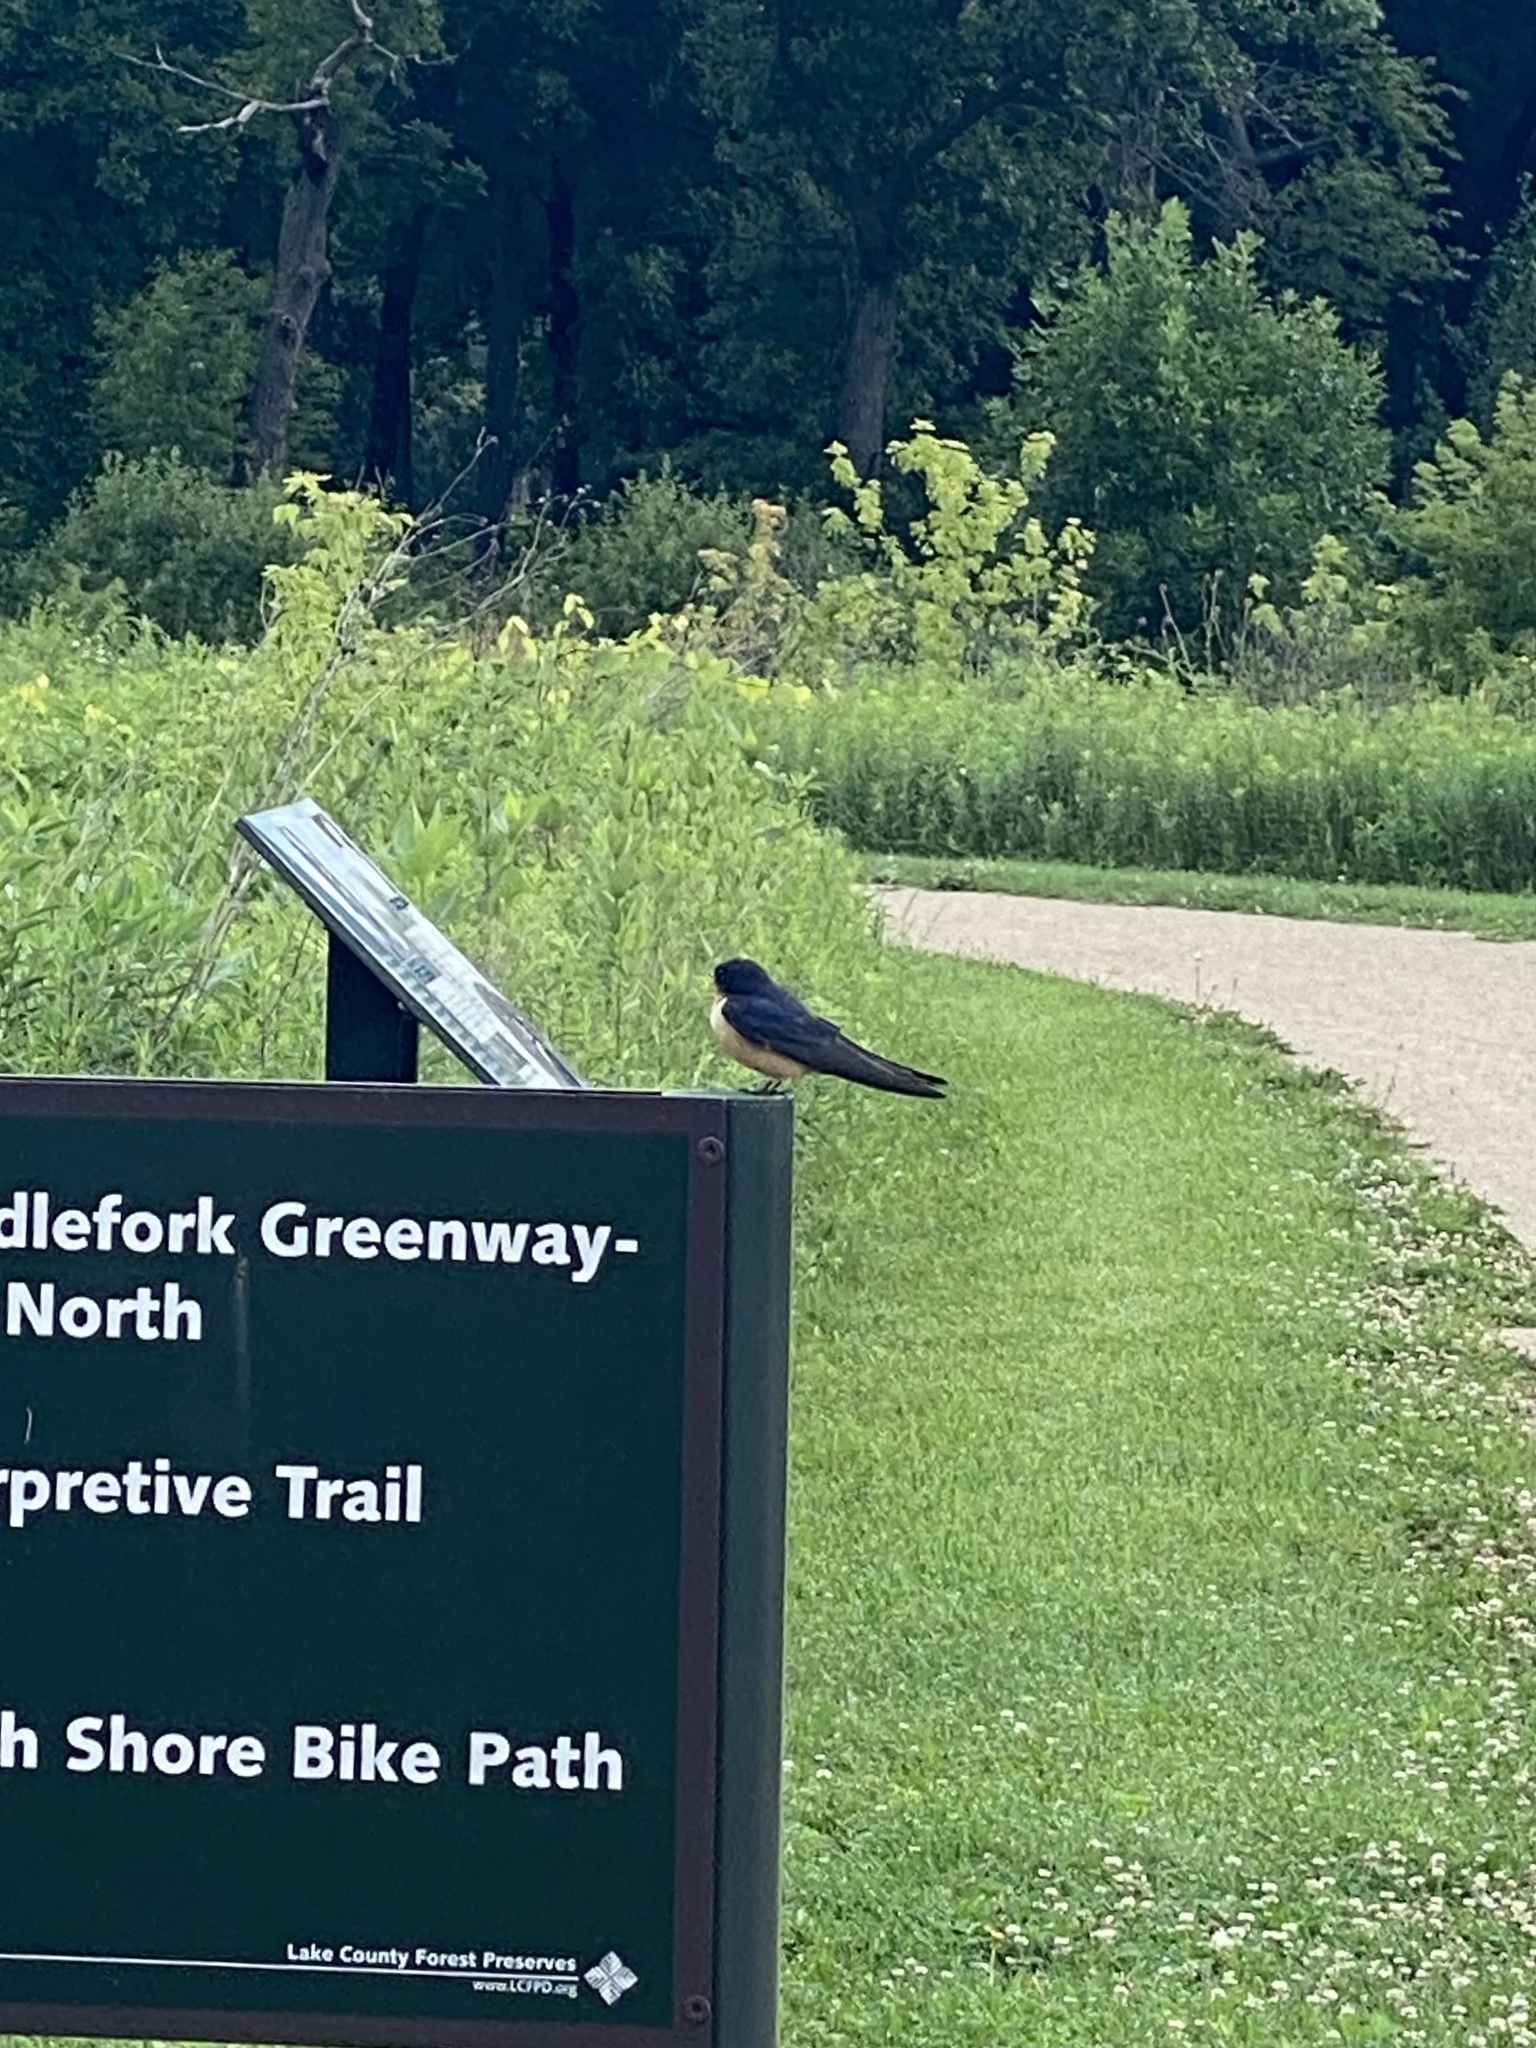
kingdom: Animalia
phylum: Chordata
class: Aves
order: Passeriformes
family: Hirundinidae
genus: Hirundo
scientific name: Hirundo rustica
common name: Barn swallow
